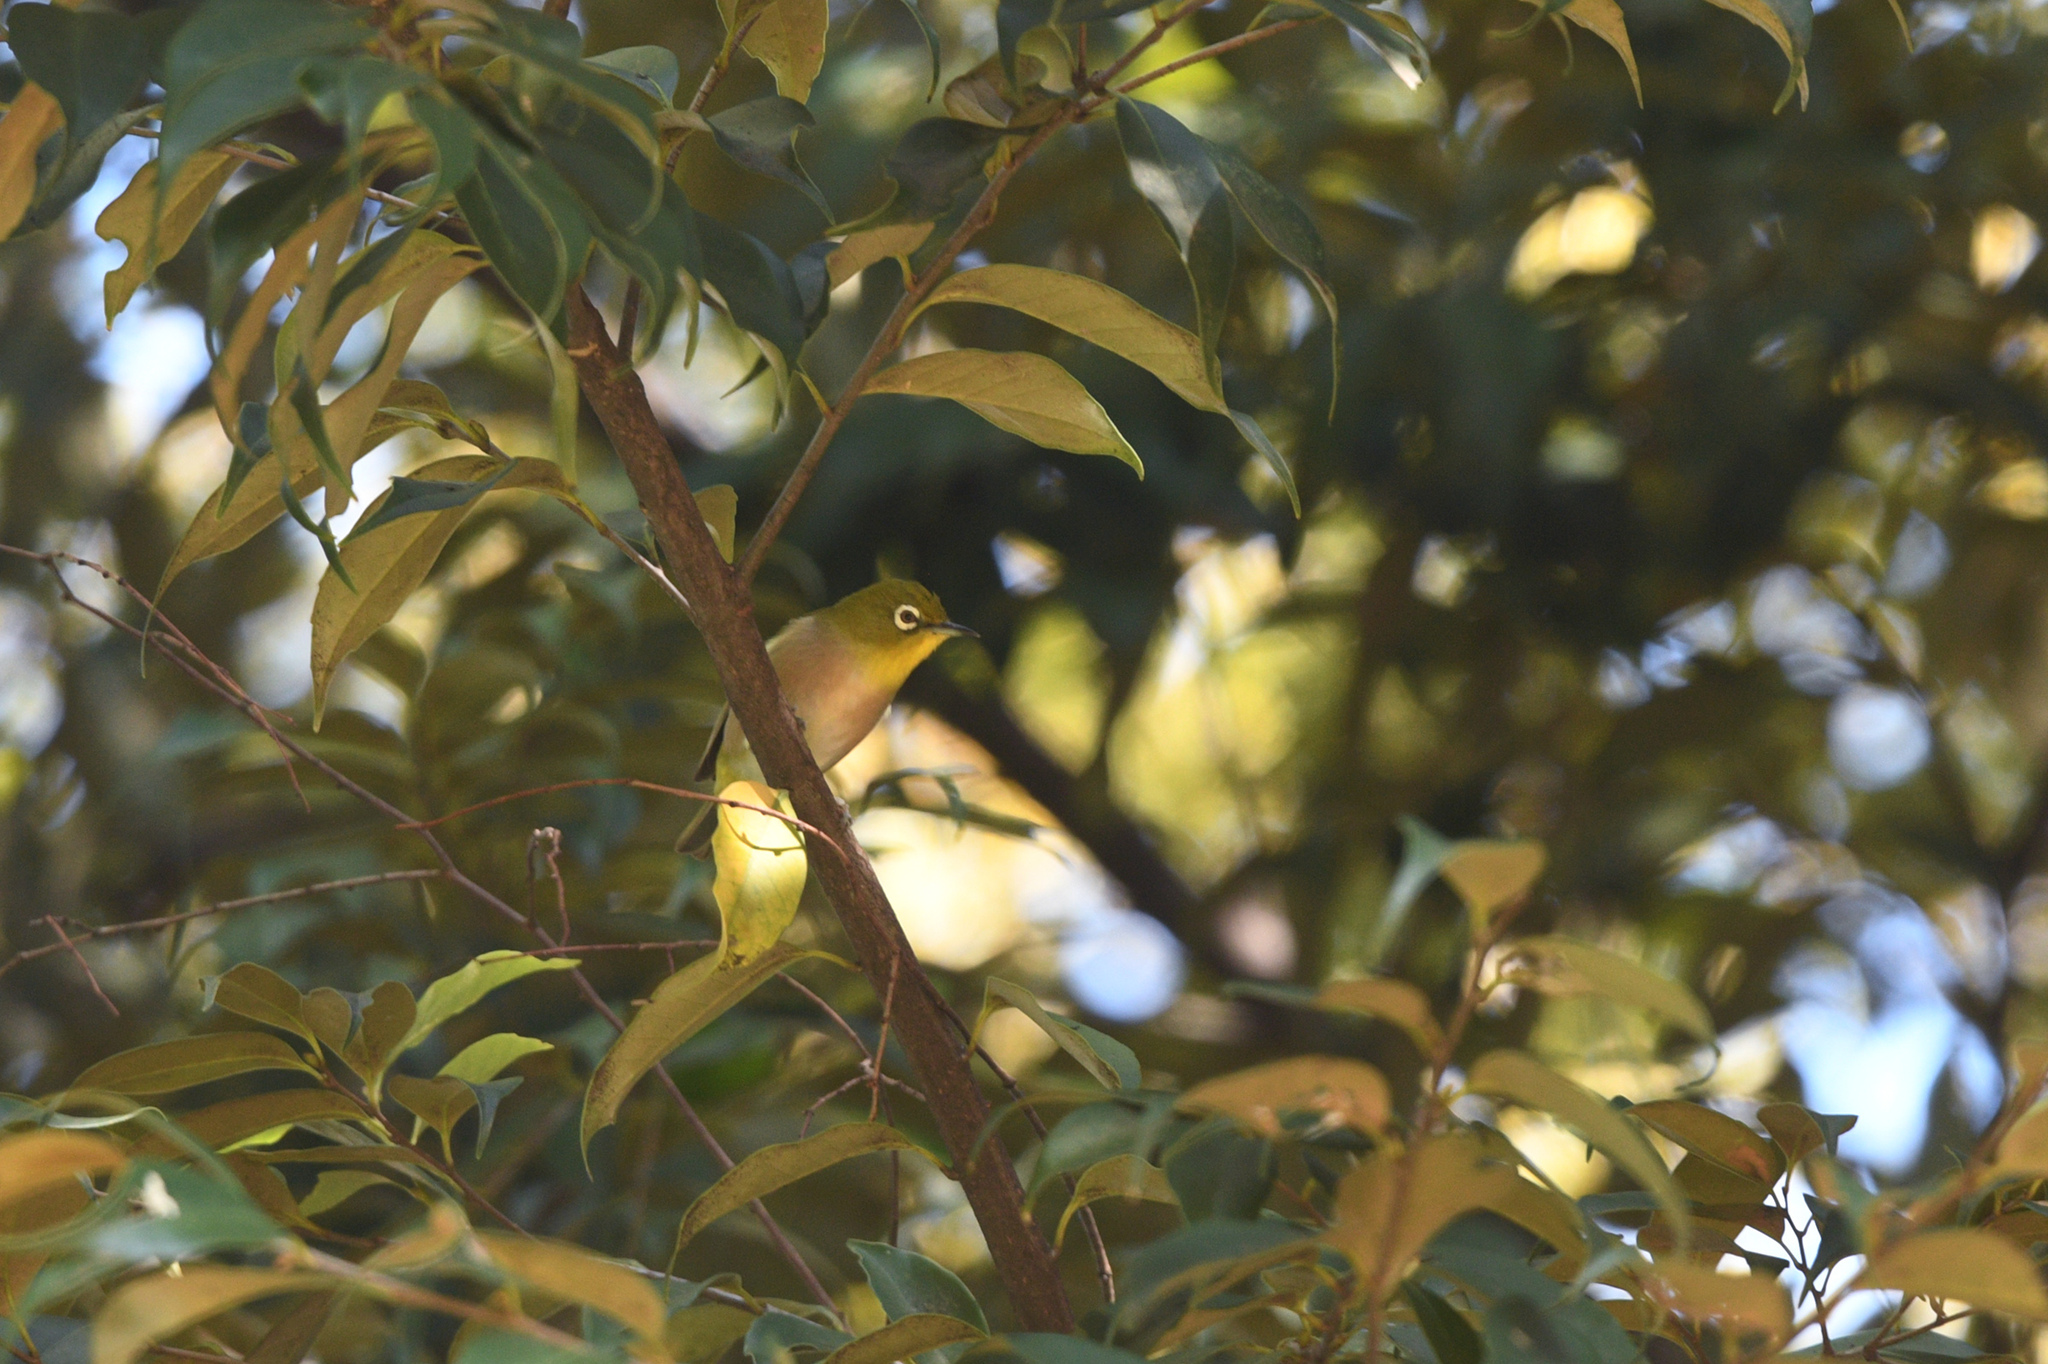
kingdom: Animalia
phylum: Chordata
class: Aves
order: Passeriformes
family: Zosteropidae
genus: Zosterops
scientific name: Zosterops japonicus
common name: Japanese white-eye
